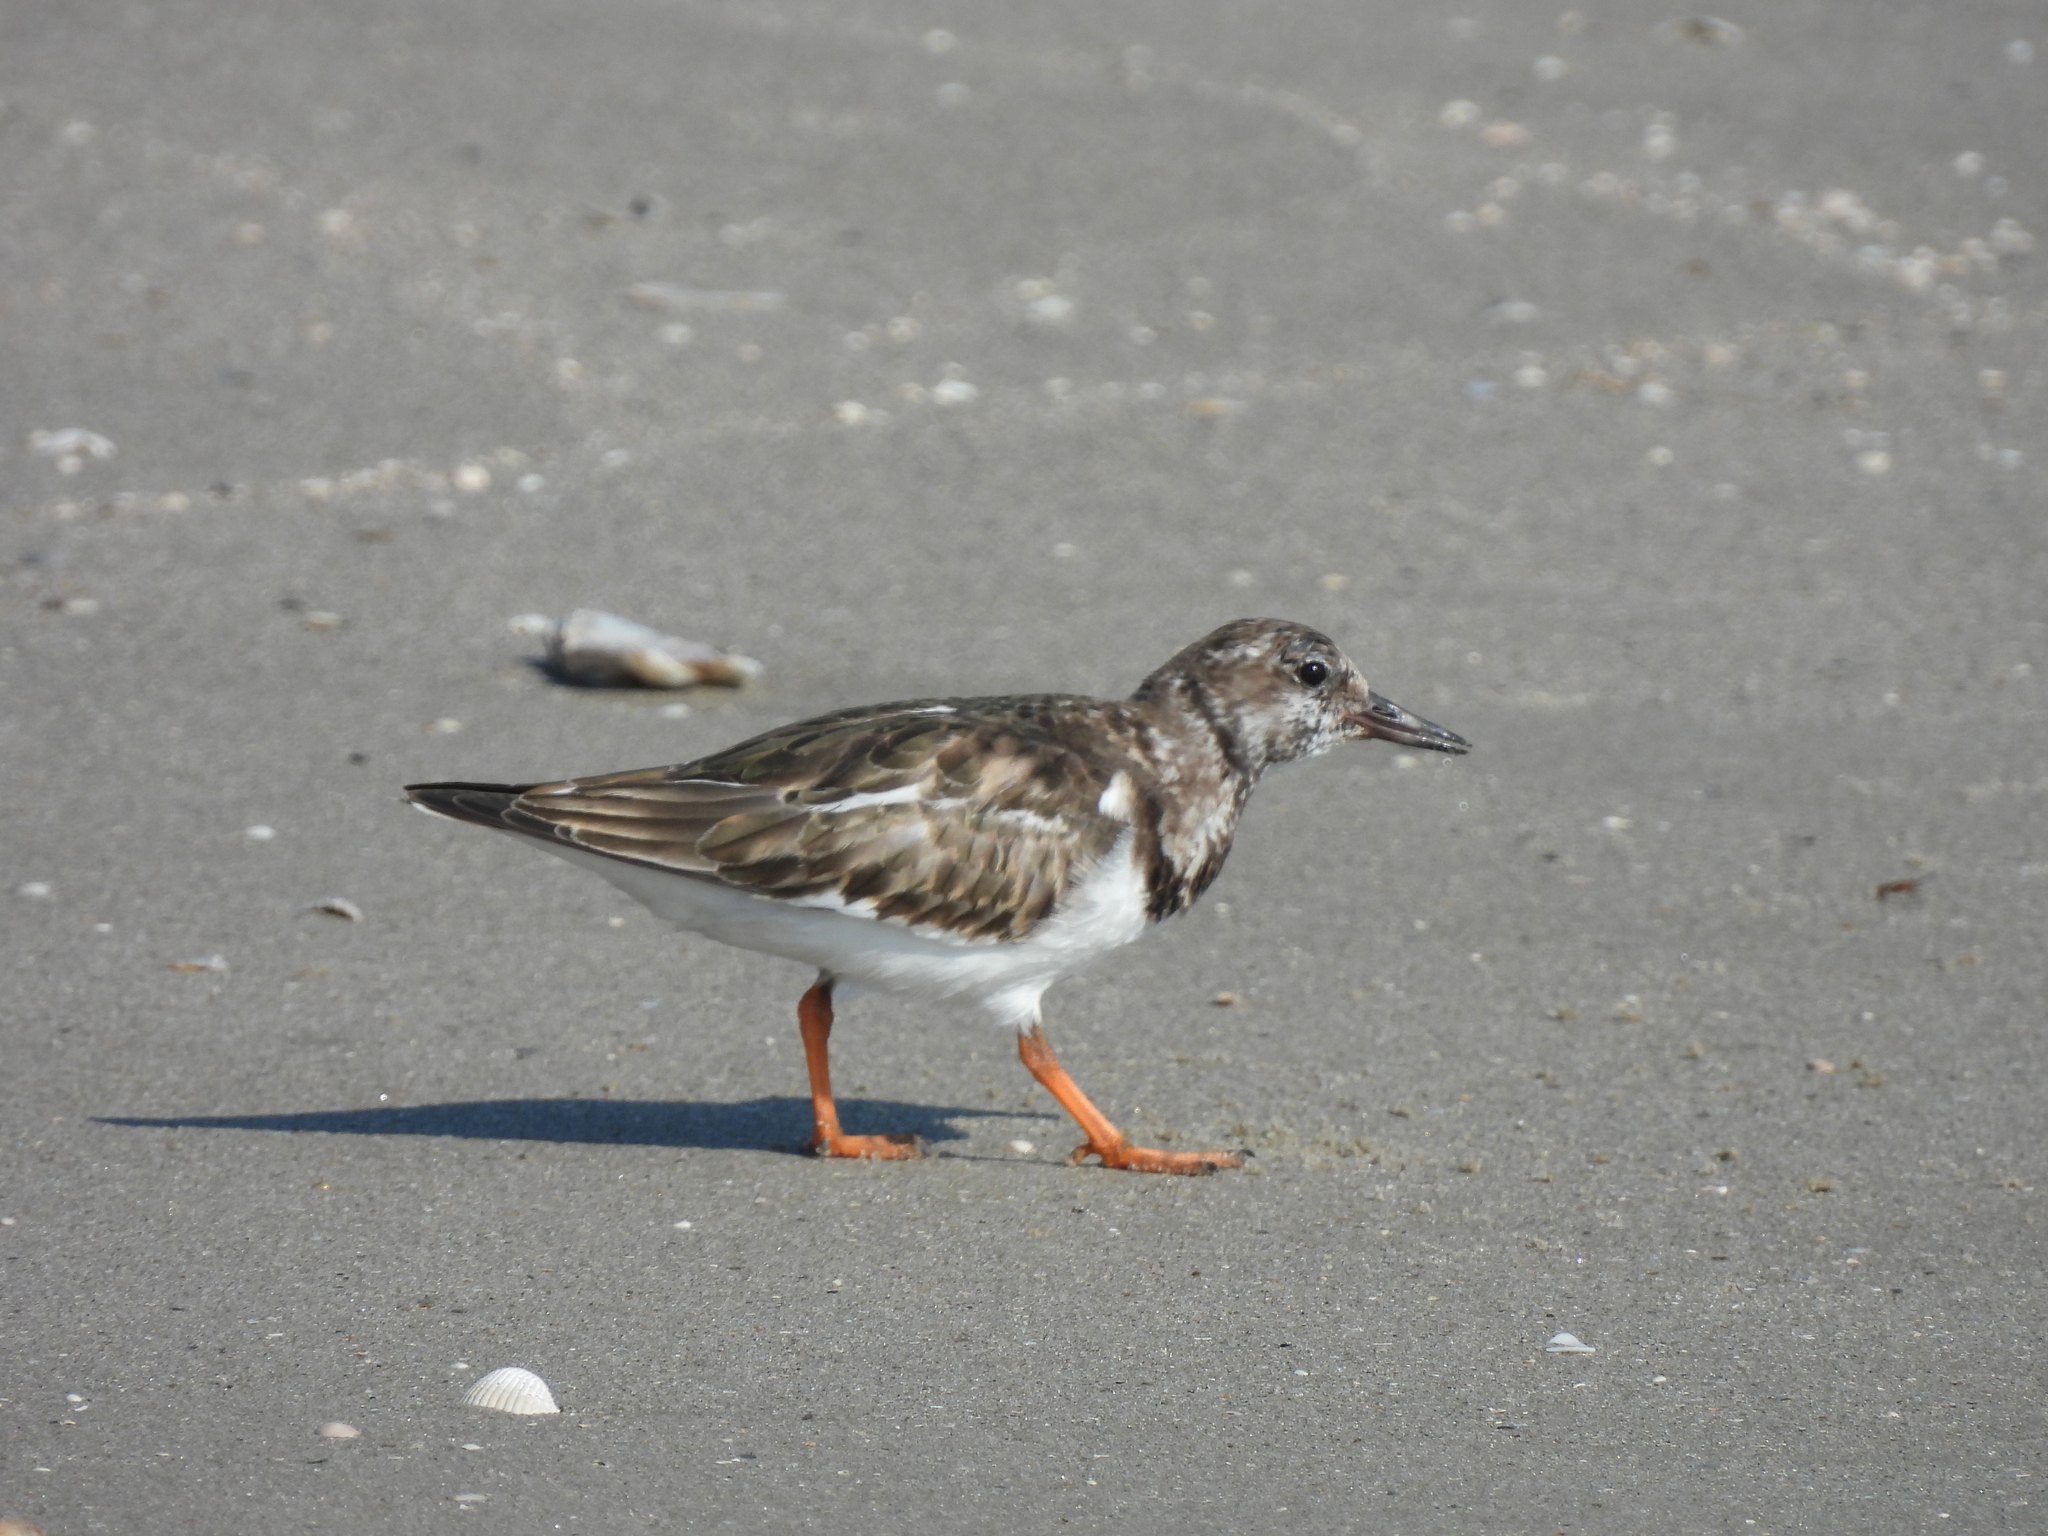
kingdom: Animalia
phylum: Chordata
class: Aves
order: Charadriiformes
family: Scolopacidae
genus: Arenaria
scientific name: Arenaria interpres
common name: Ruddy turnstone
